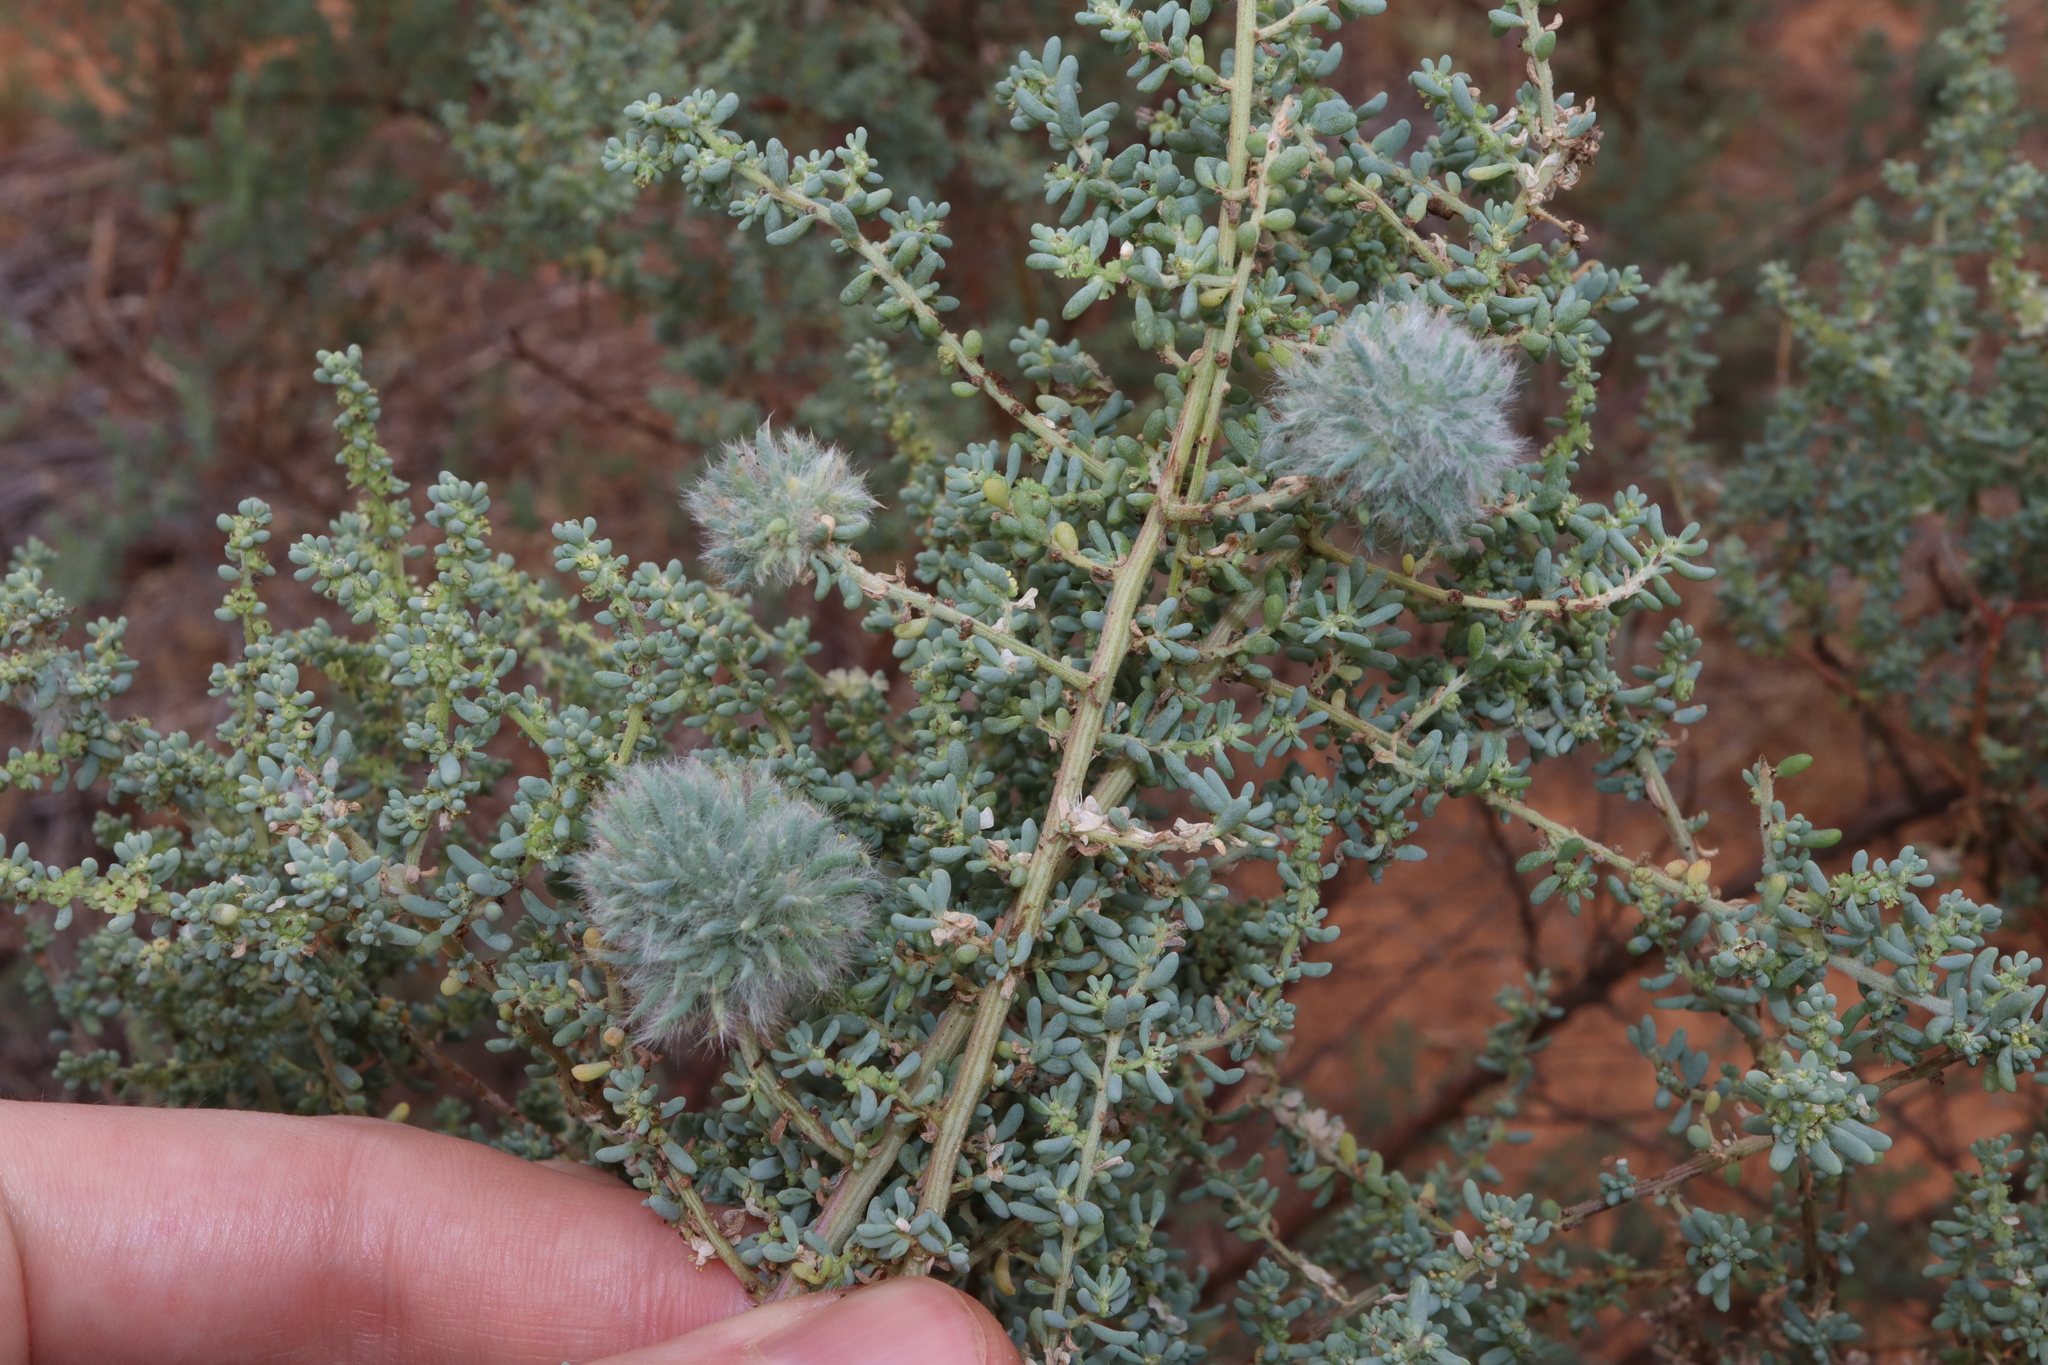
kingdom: Animalia
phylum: Arthropoda
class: Insecta
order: Diptera
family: Cecidomyiidae
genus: Dactylasioptera
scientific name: Dactylasioptera milnae
